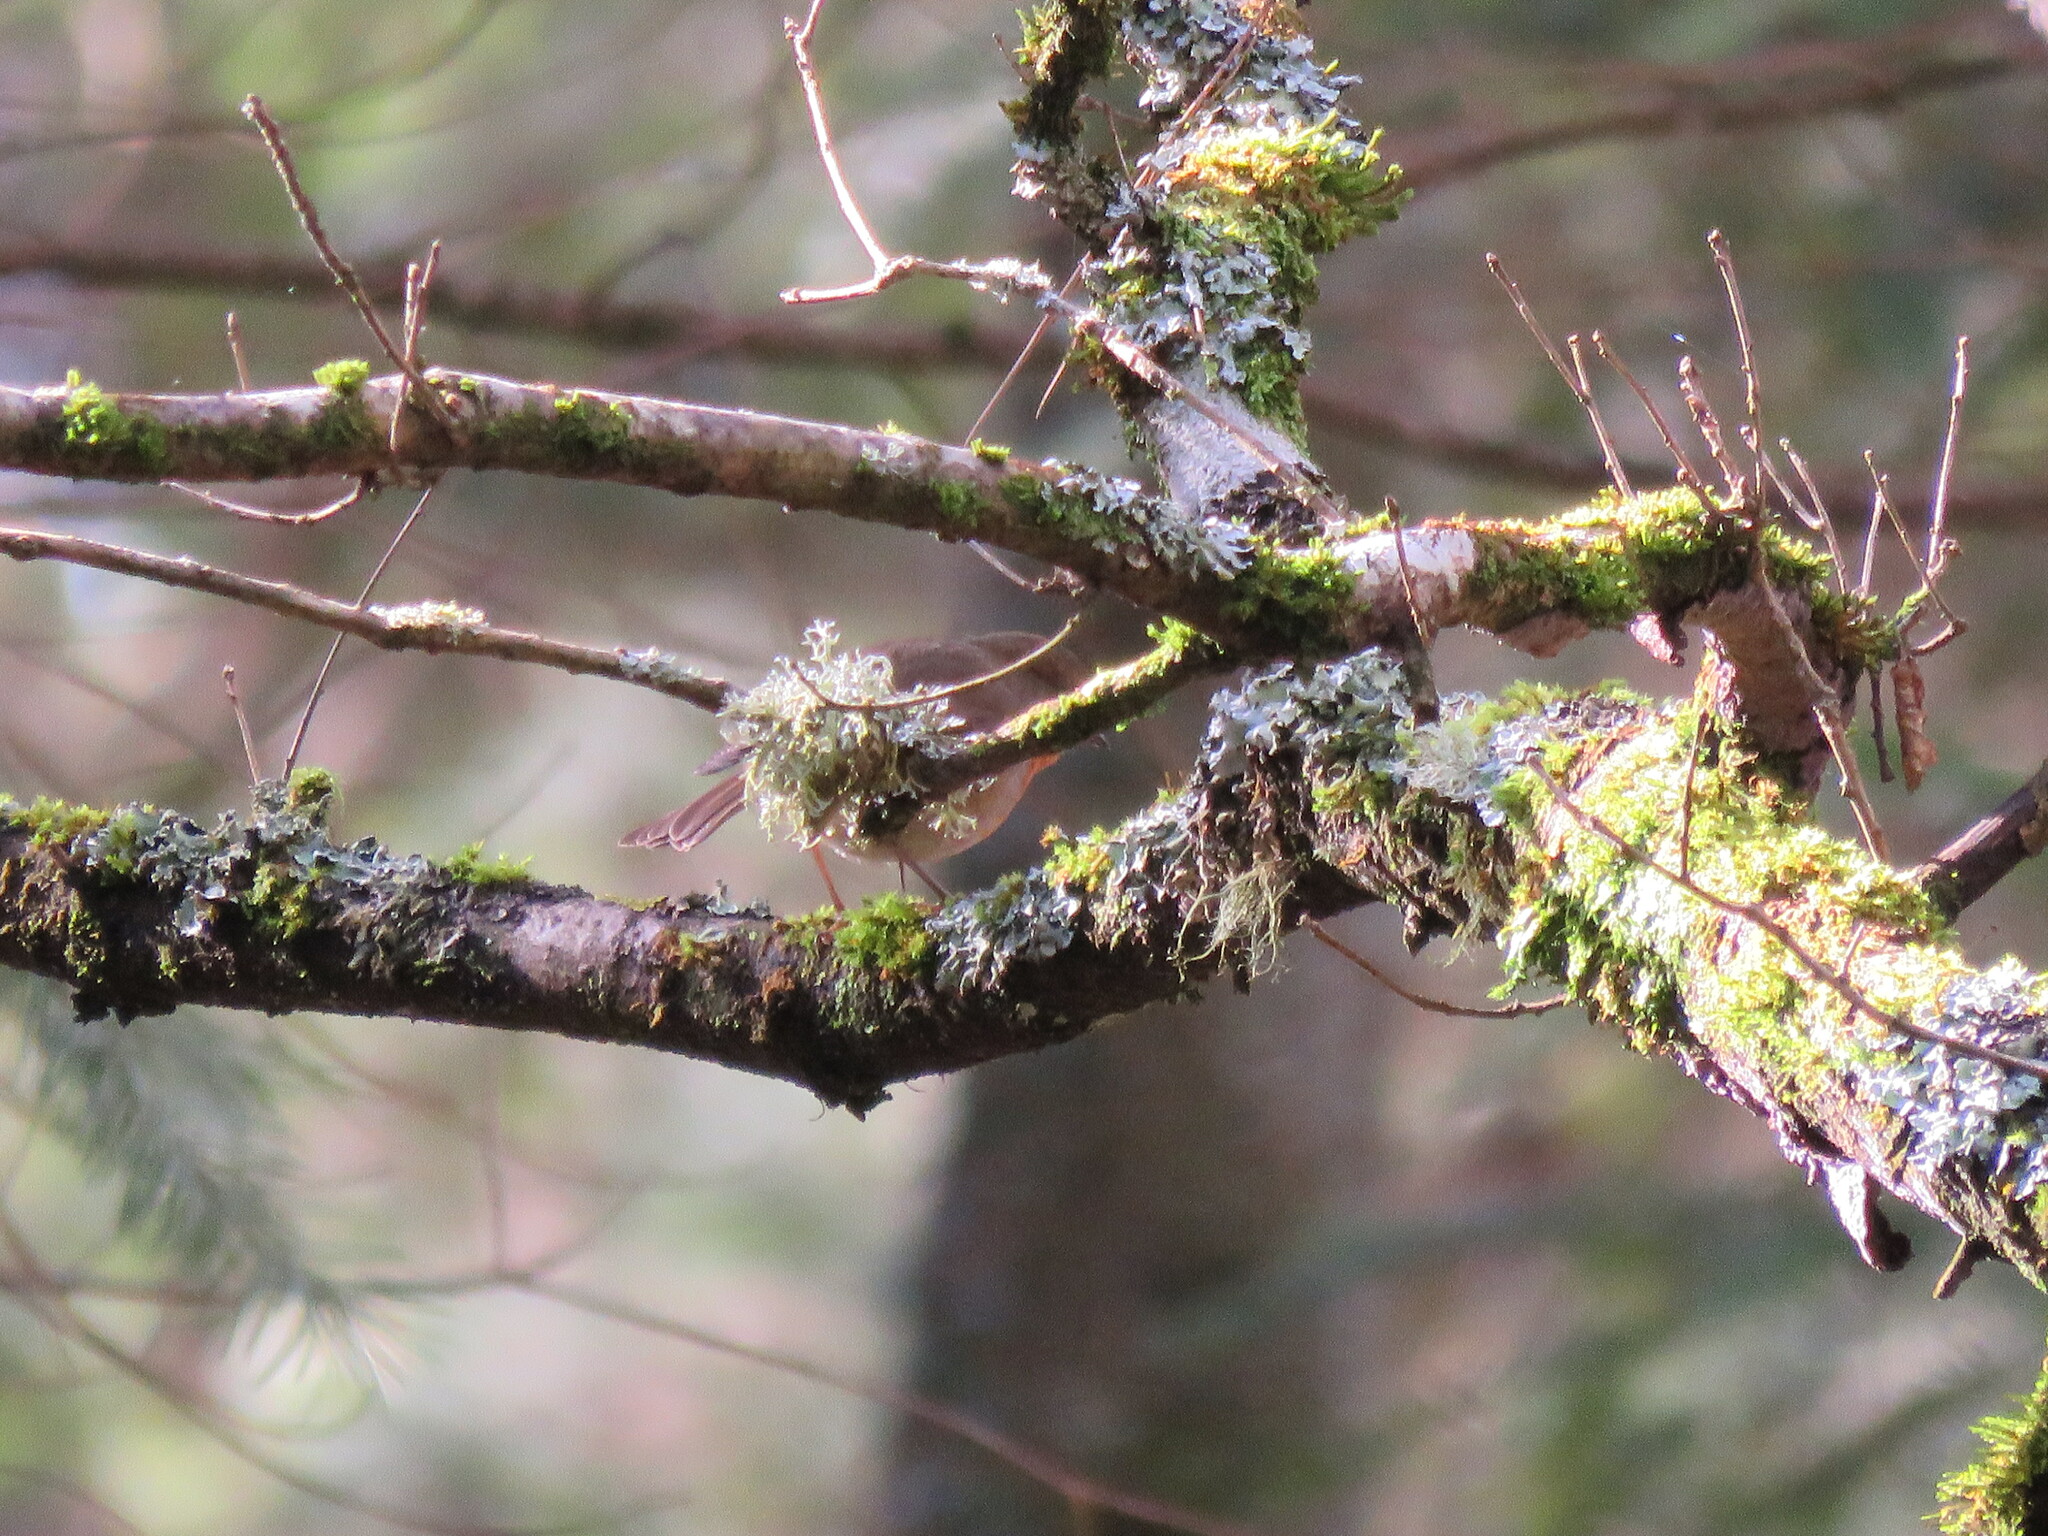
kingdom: Animalia
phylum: Chordata
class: Aves
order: Passeriformes
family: Muscicapidae
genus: Erithacus
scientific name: Erithacus rubecula
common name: European robin
